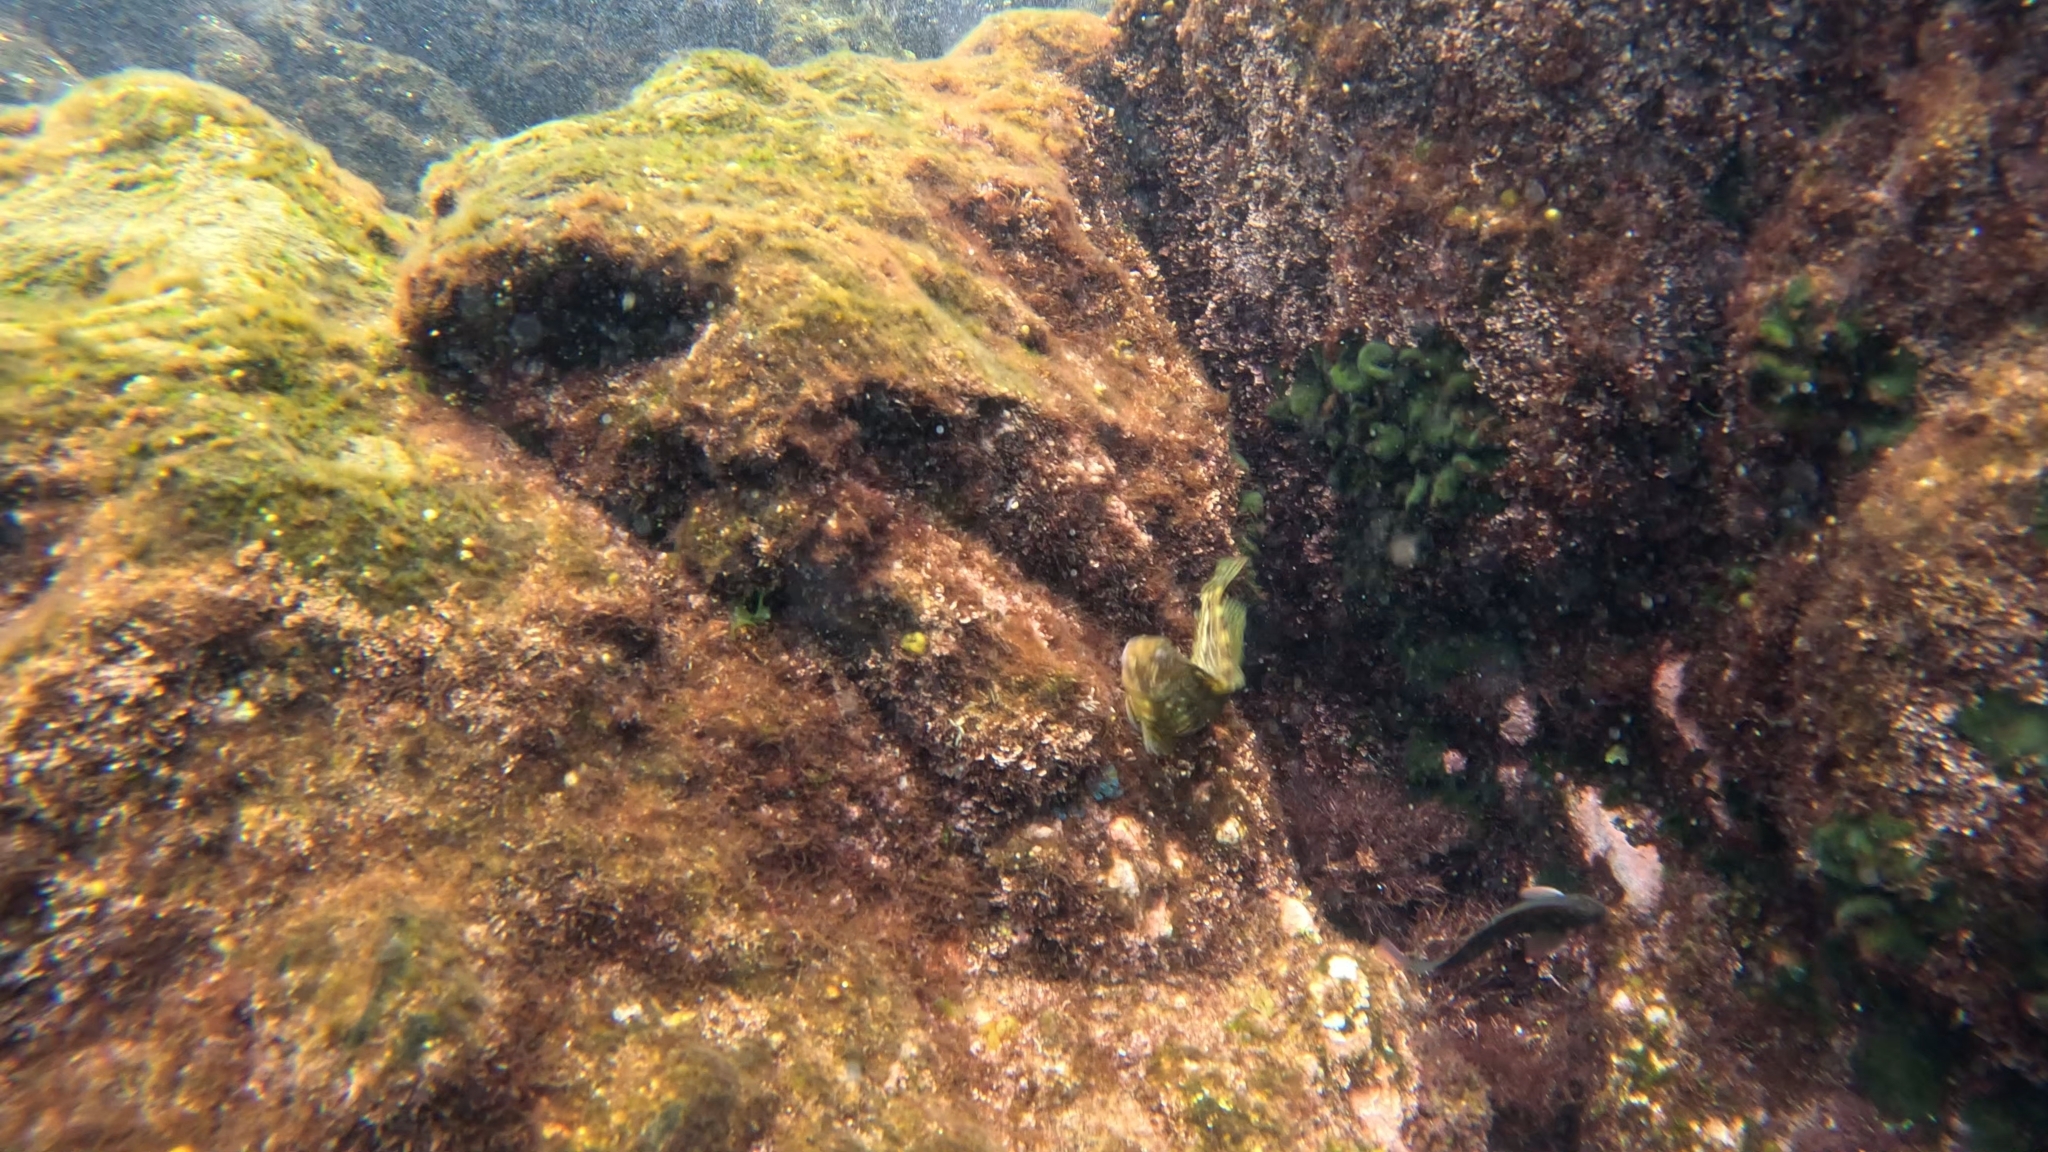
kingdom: Animalia
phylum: Chordata
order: Perciformes
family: Blenniidae
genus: Scartella
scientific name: Scartella cristata
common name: Molly miller
